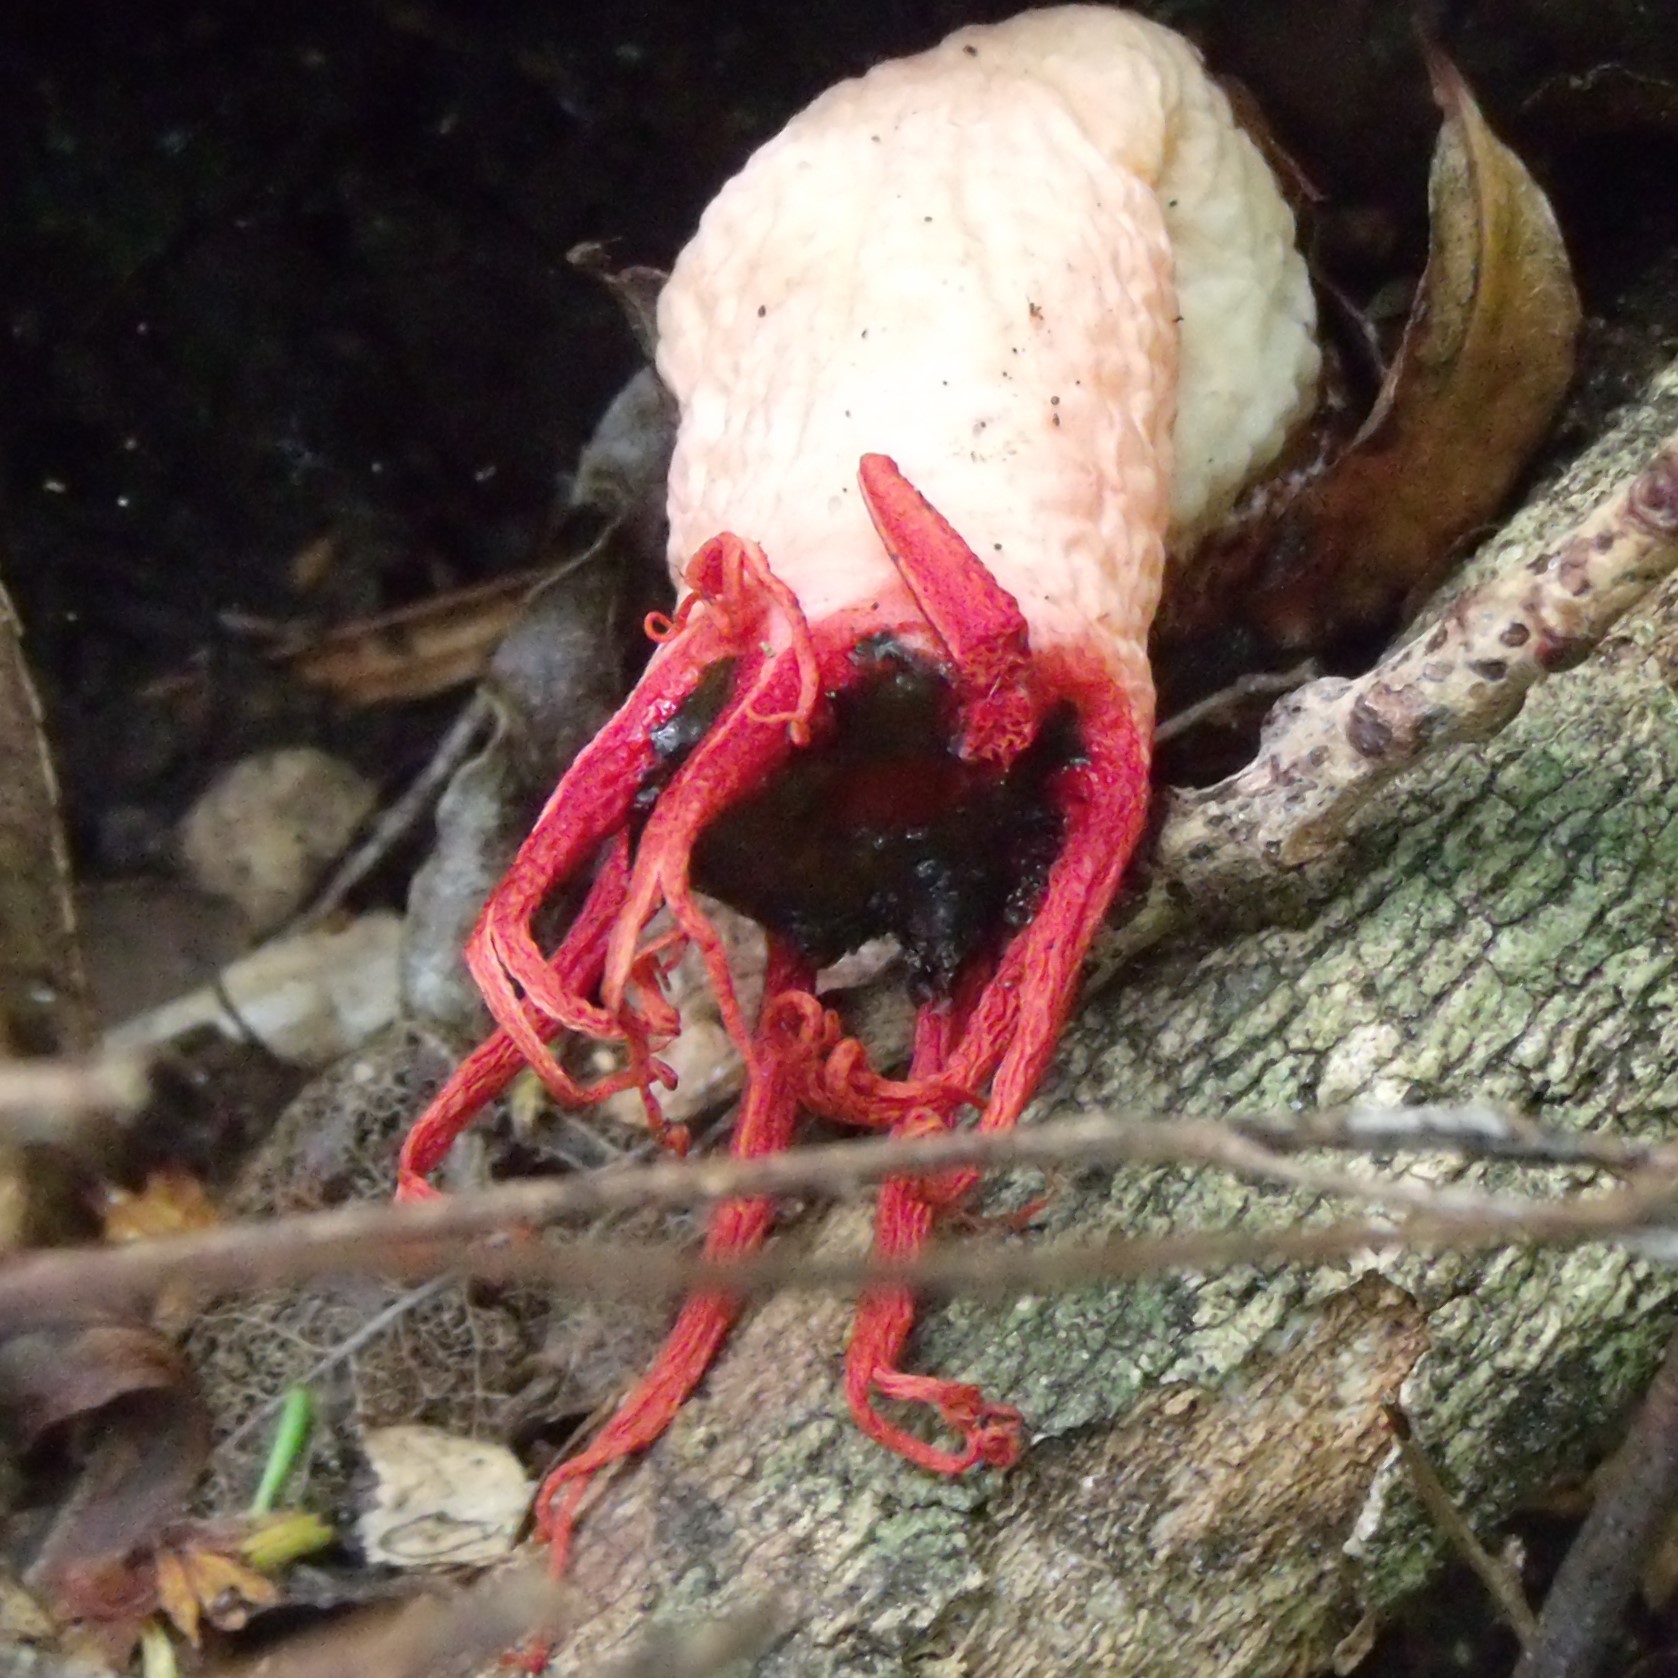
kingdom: Fungi
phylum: Basidiomycota
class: Agaricomycetes
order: Phallales
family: Phallaceae
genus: Aseroe
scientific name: Aseroe rubra
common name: Starfish fungus
